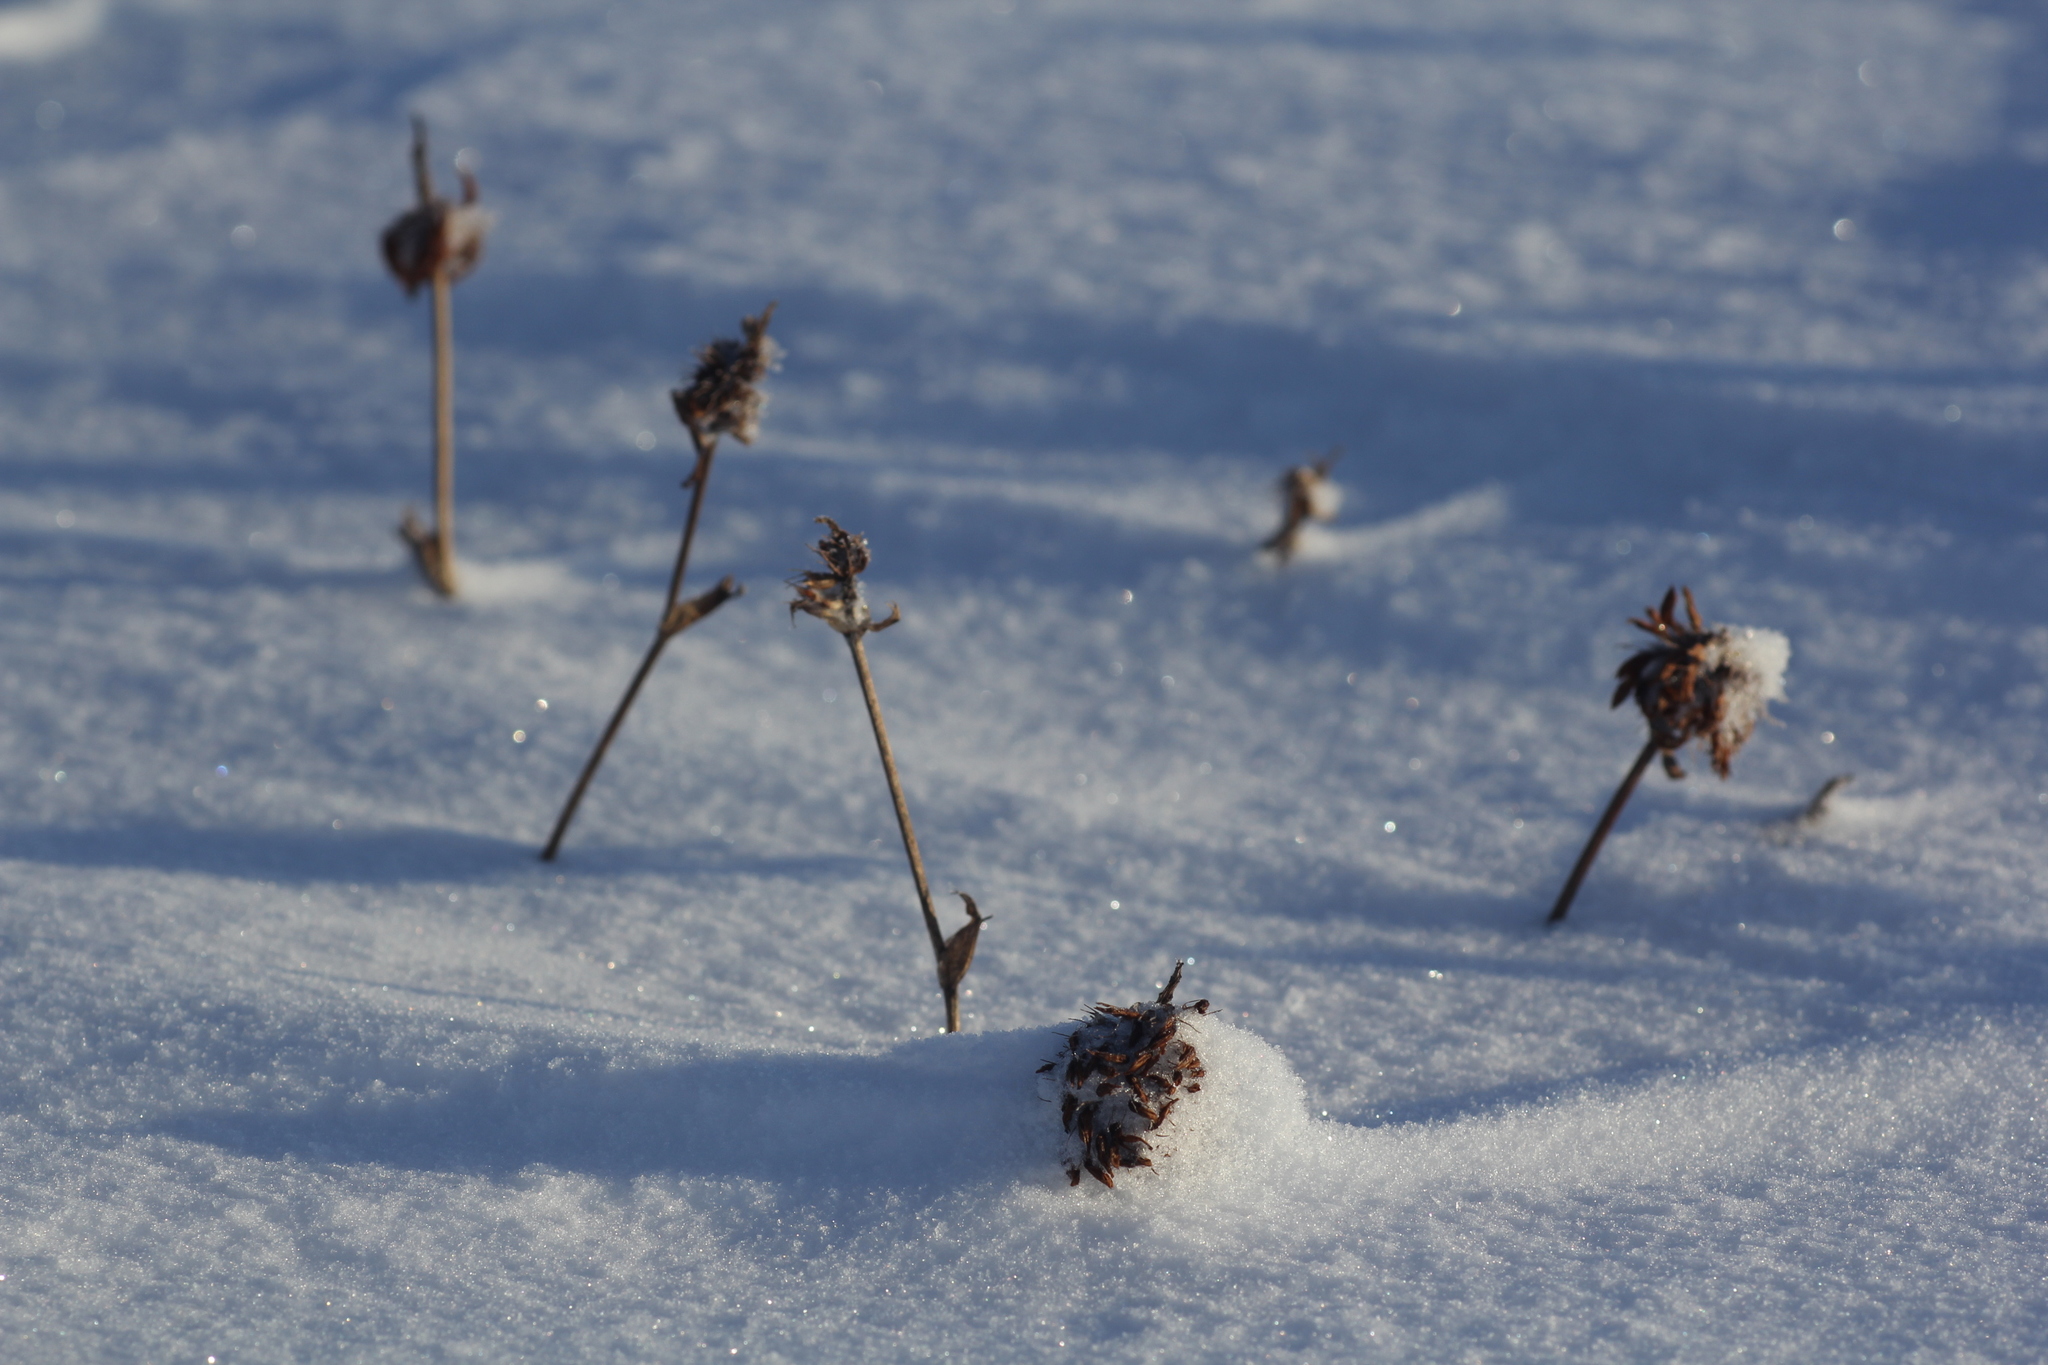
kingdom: Plantae
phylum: Tracheophyta
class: Magnoliopsida
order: Fabales
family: Fabaceae
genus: Trifolium
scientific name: Trifolium pratense
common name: Red clover
